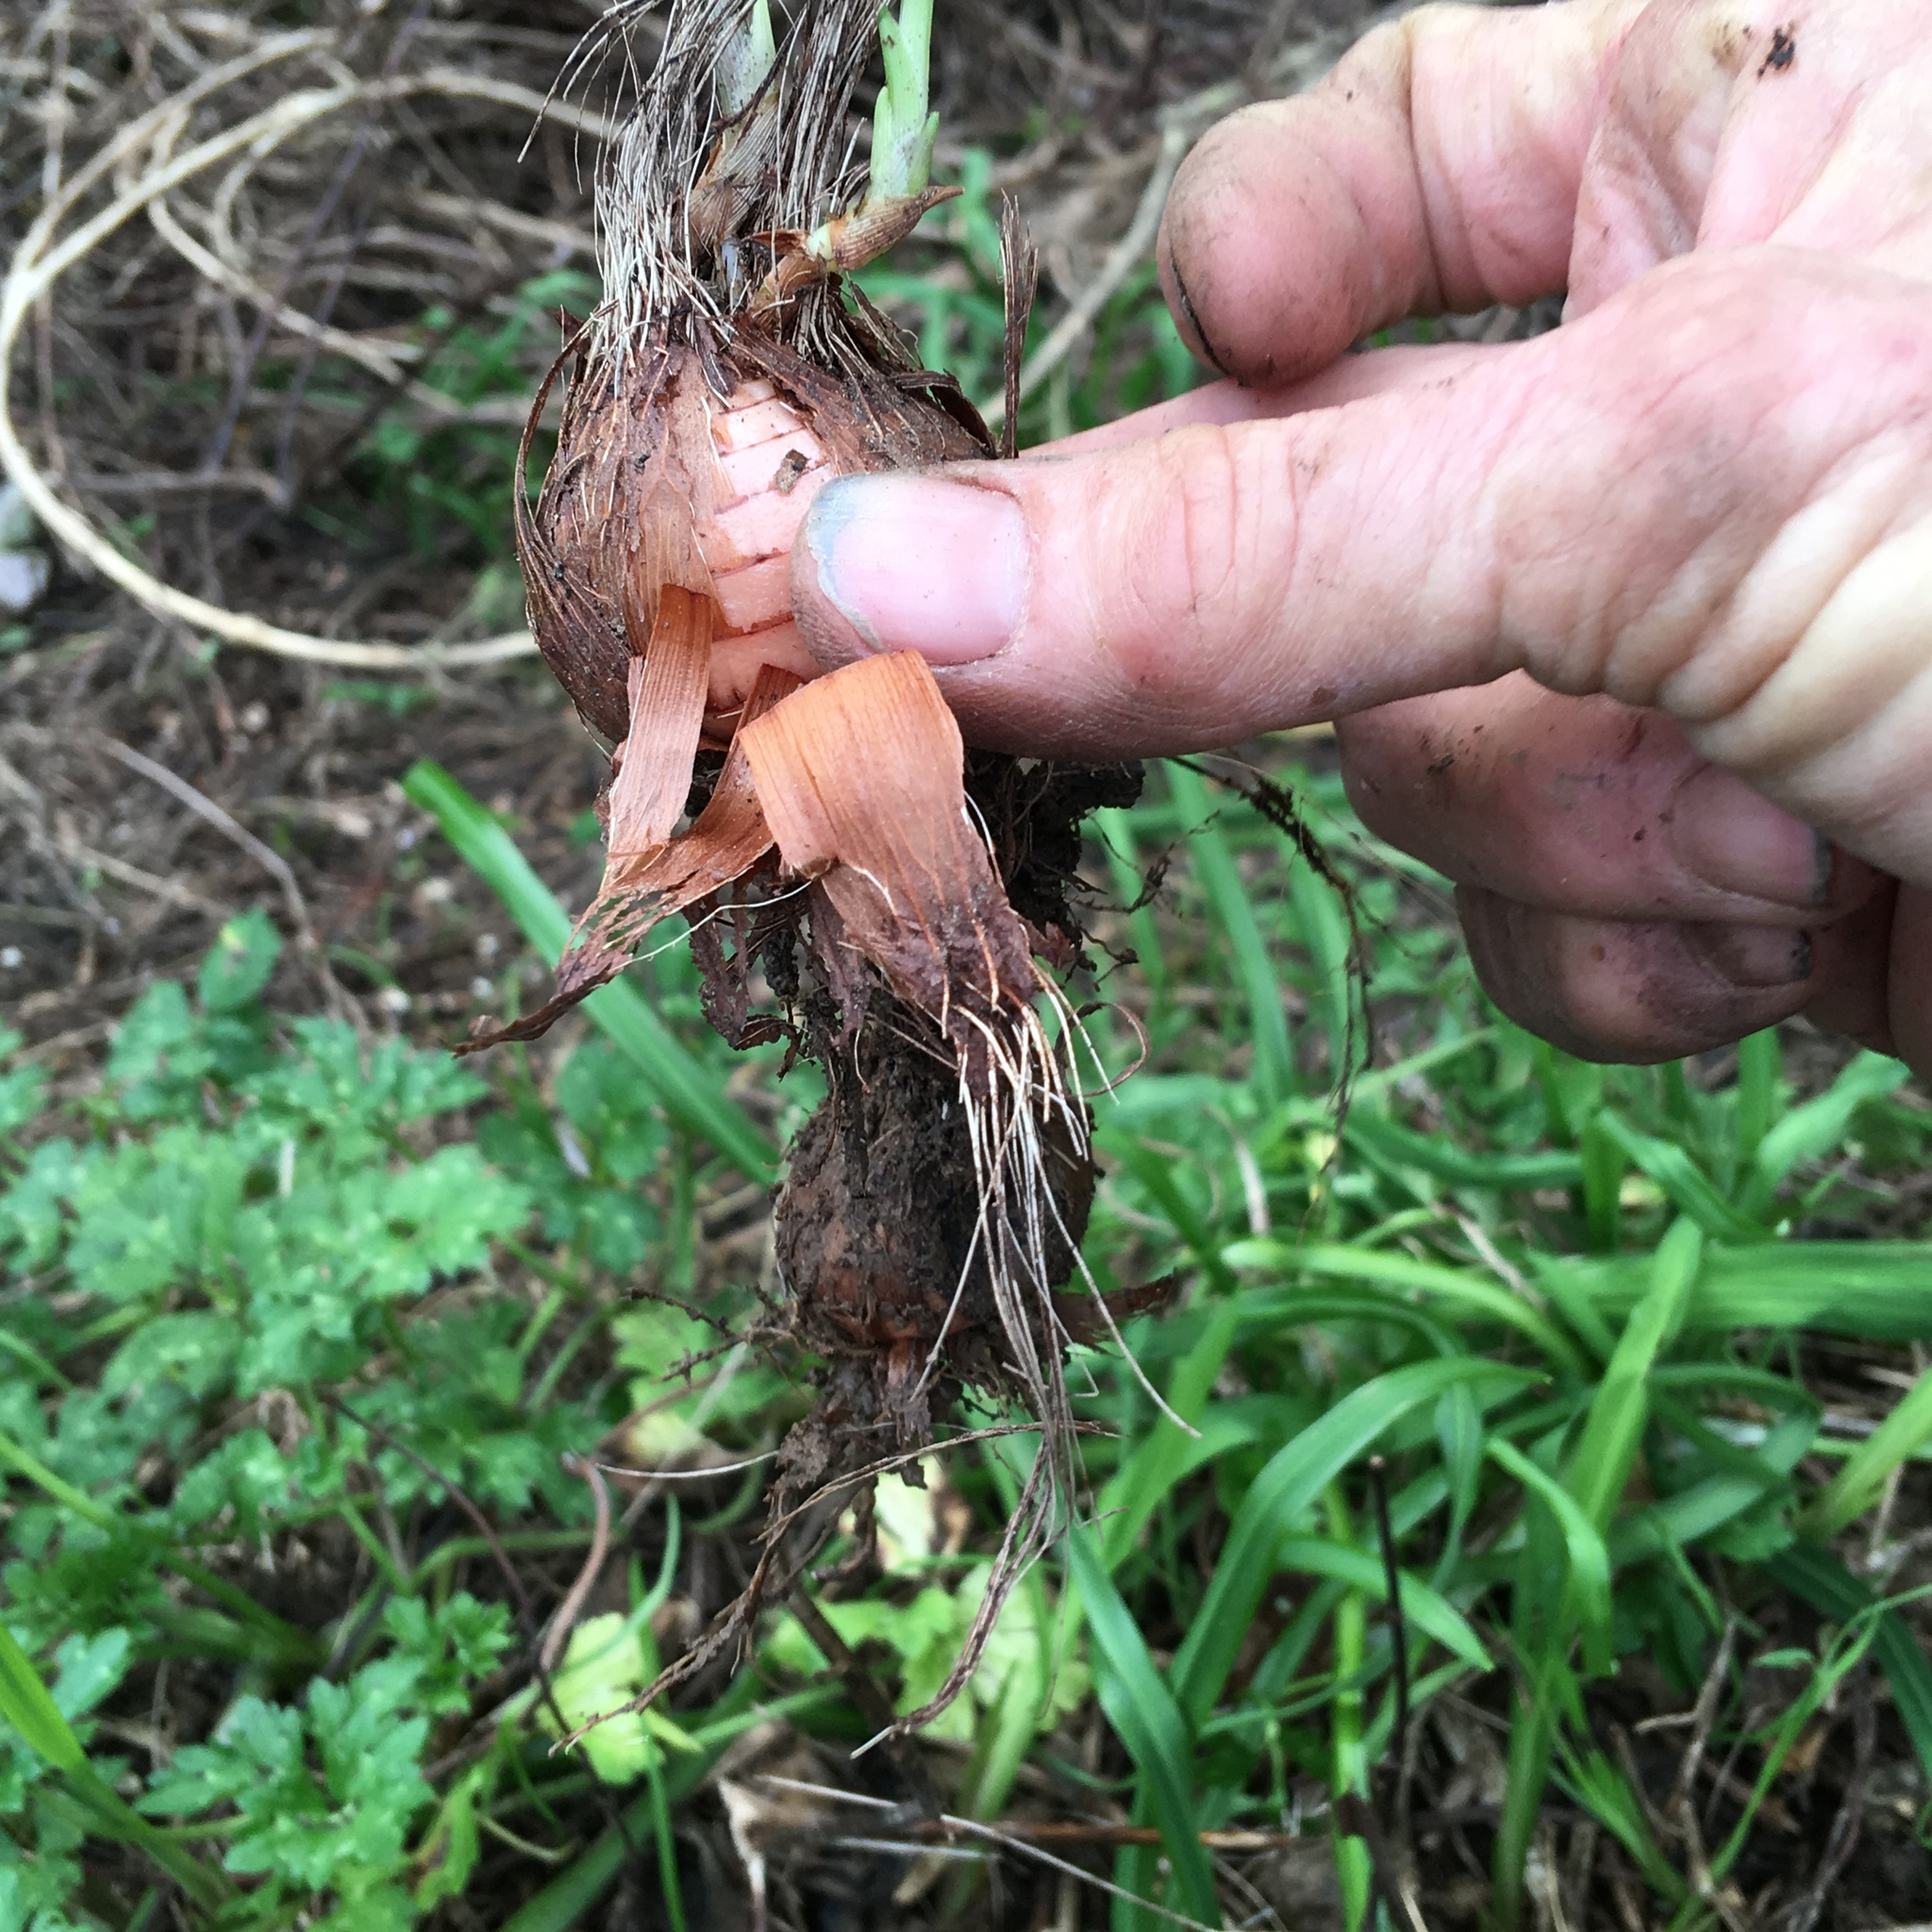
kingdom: Plantae
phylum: Tracheophyta
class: Liliopsida
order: Asparagales
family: Iridaceae
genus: Watsonia
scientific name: Watsonia meriana
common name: Bulbil bugle-lily
